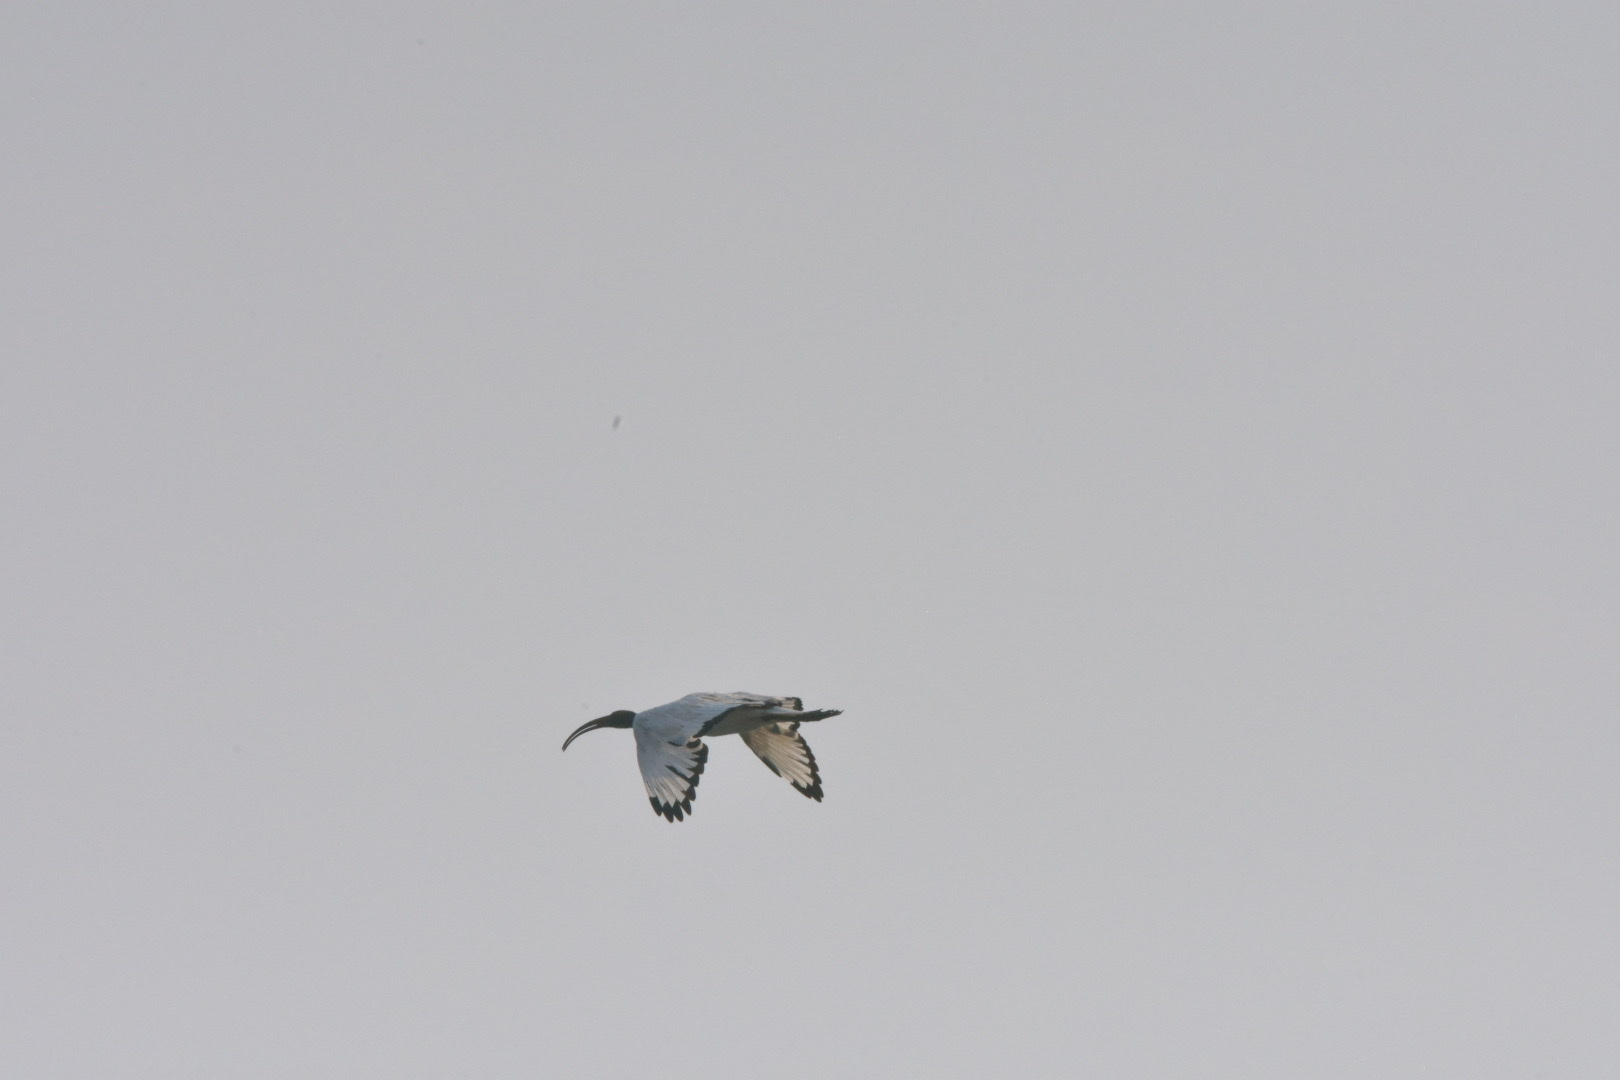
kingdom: Animalia
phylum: Chordata
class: Aves
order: Pelecaniformes
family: Threskiornithidae
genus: Threskiornis
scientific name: Threskiornis aethiopicus
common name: Sacred ibis
